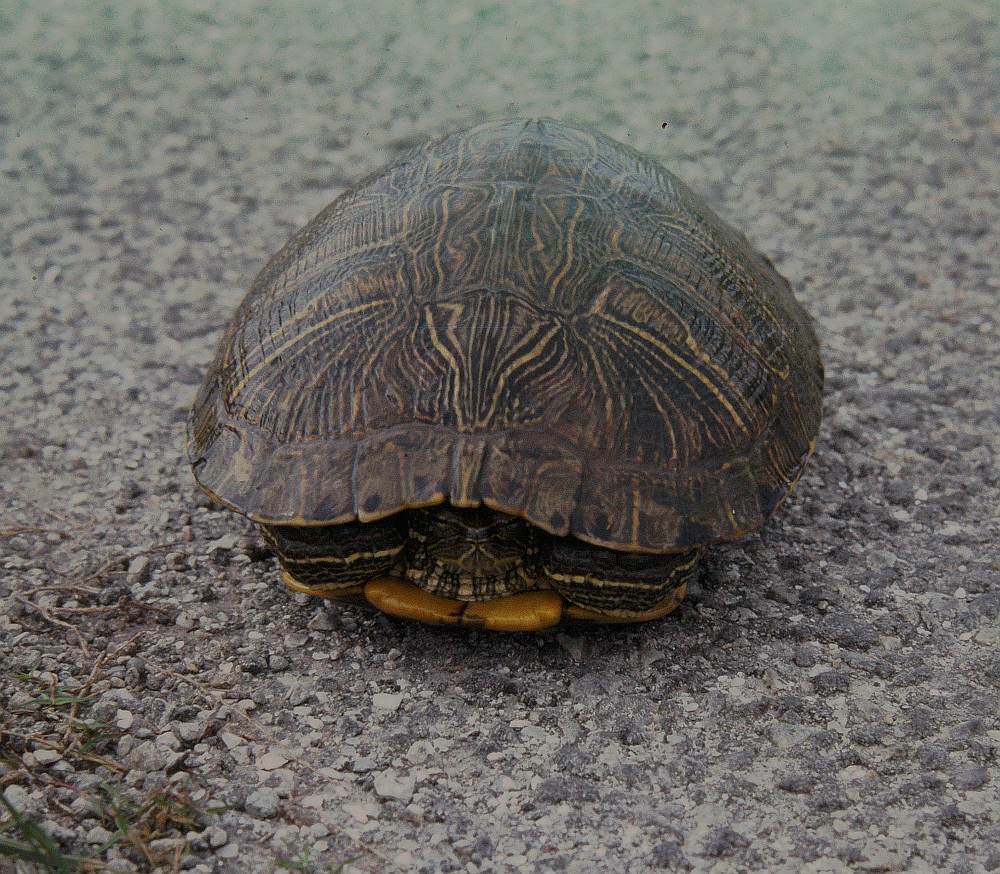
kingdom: Animalia
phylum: Chordata
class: Testudines
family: Emydidae
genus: Trachemys
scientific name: Trachemys scripta
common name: Slider
